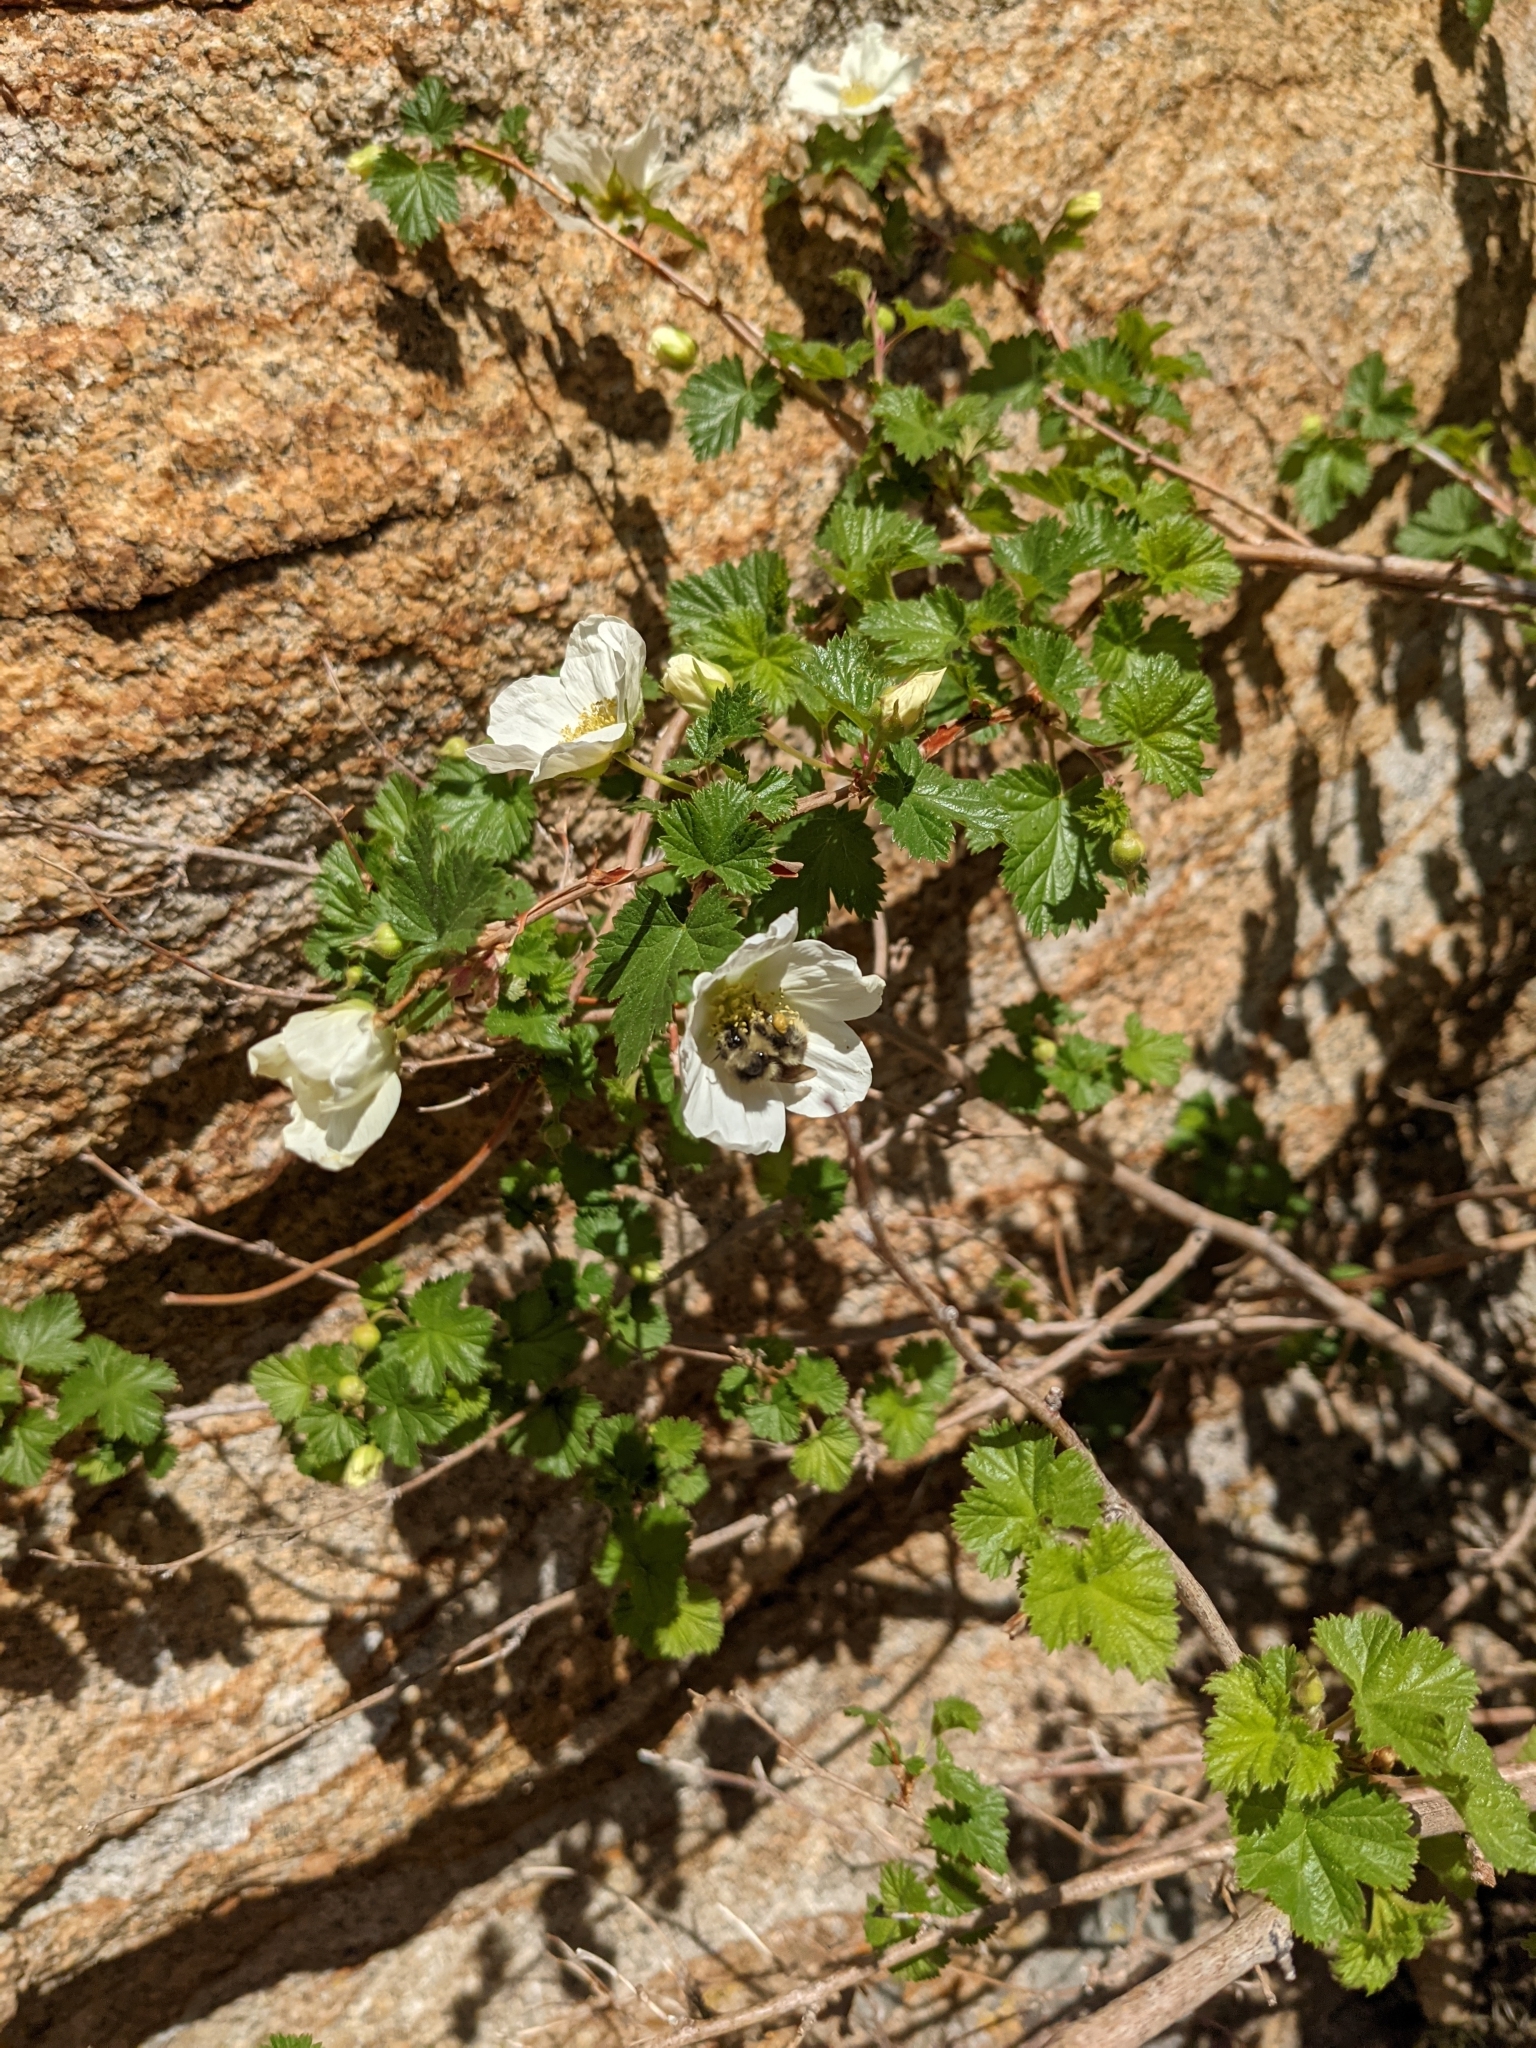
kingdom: Plantae
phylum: Tracheophyta
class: Magnoliopsida
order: Rosales
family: Rosaceae
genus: Rubus
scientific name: Rubus deliciosus
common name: Rocky mountain raspberry
